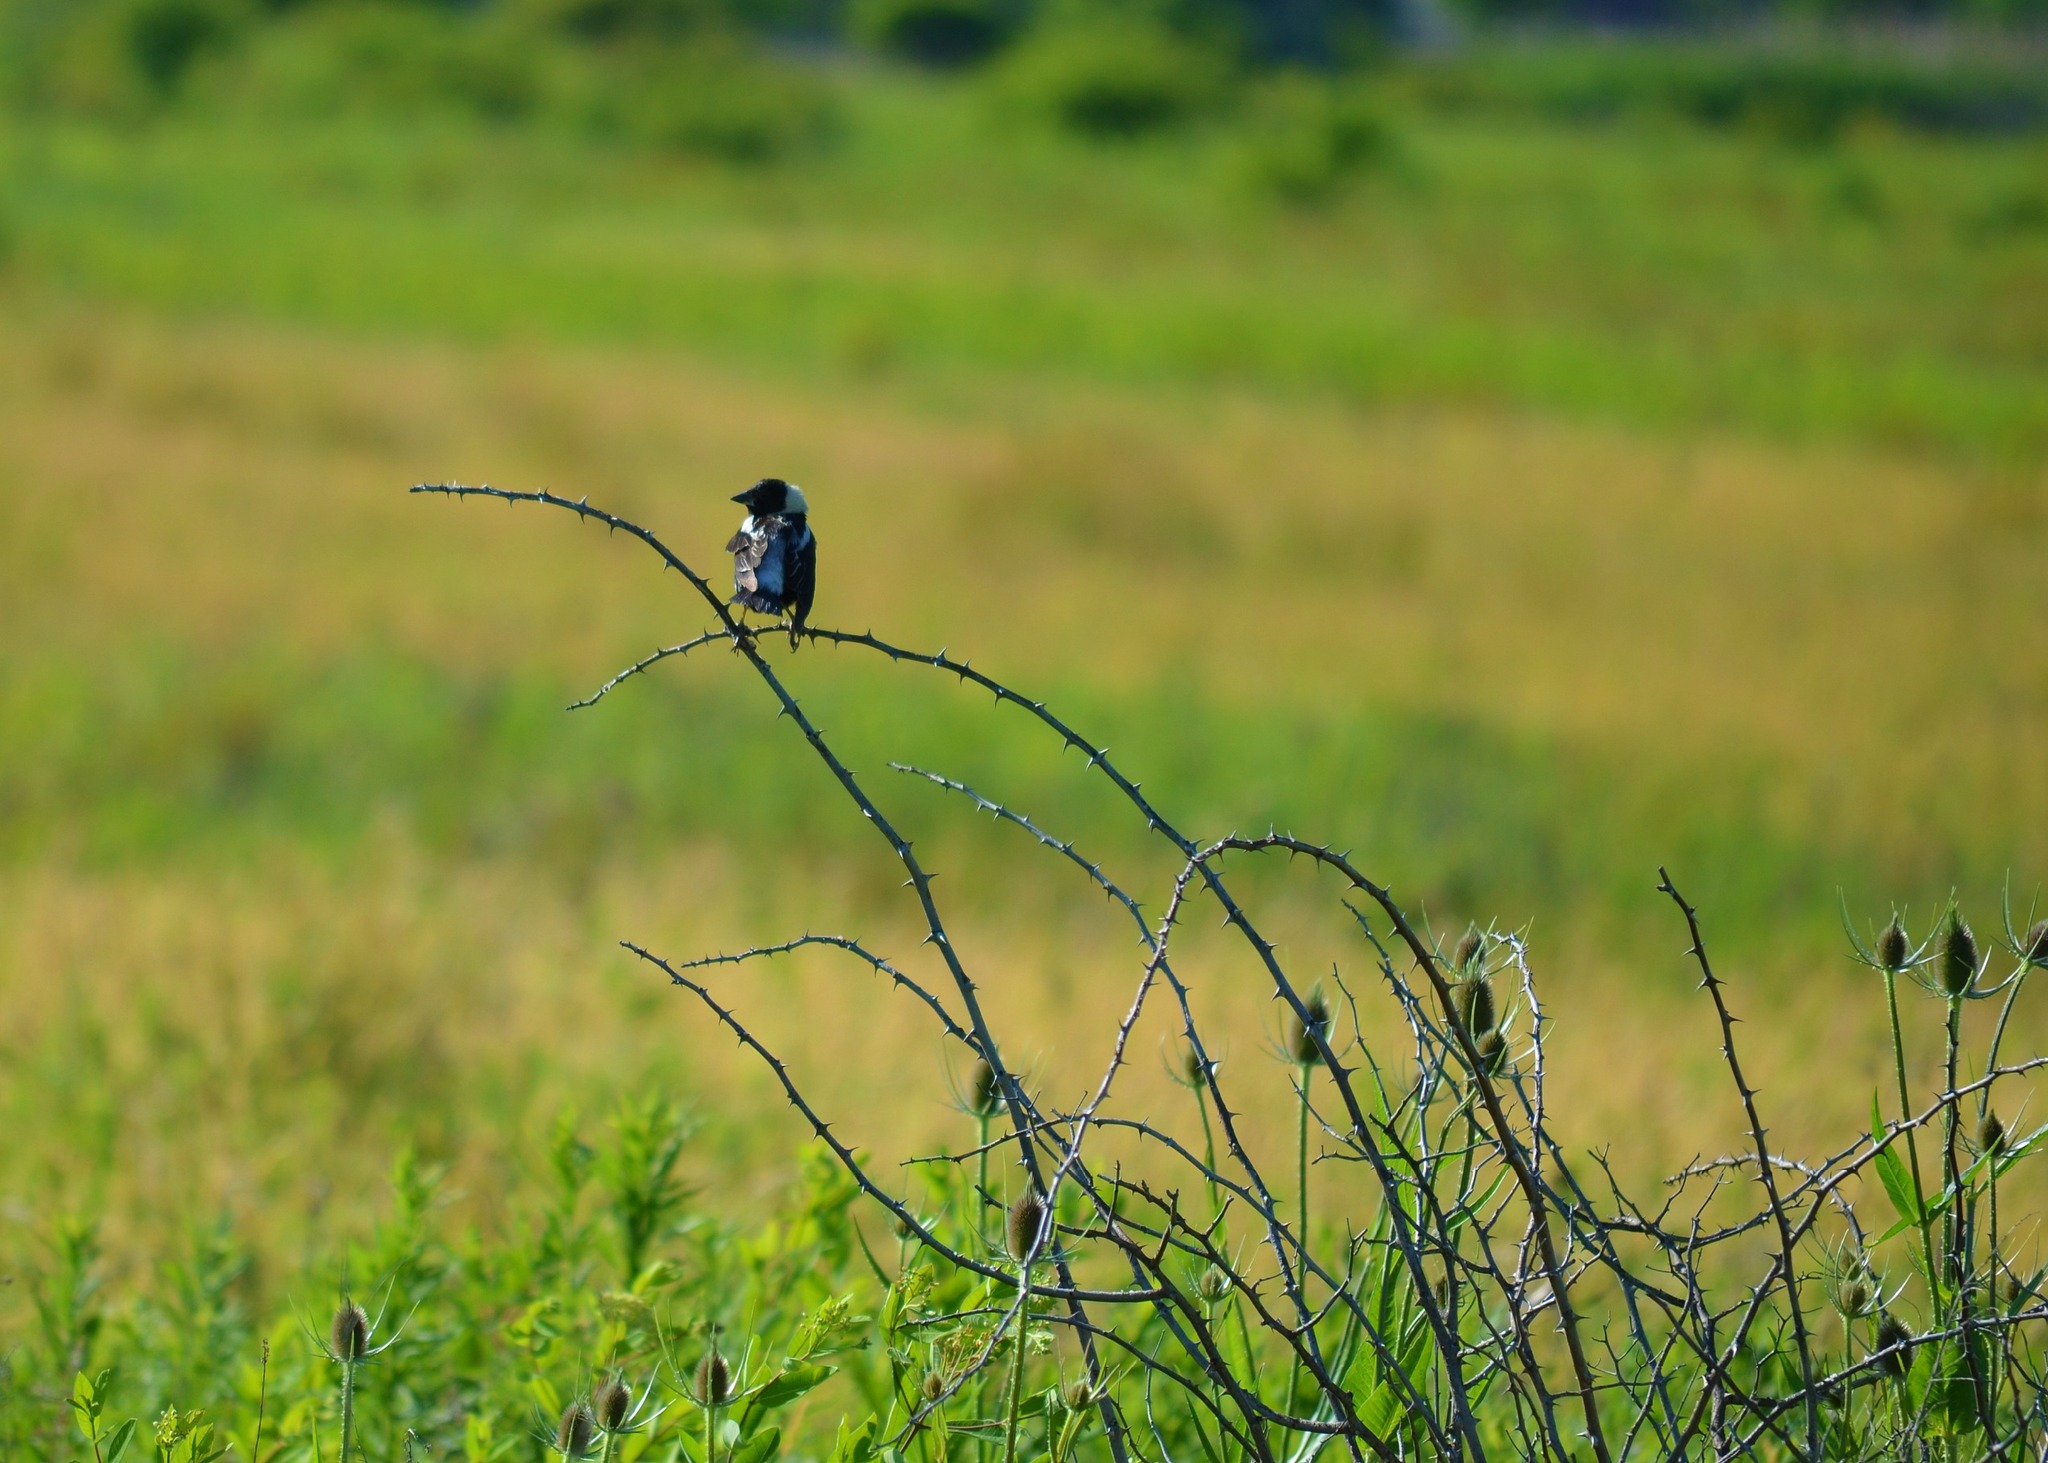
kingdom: Animalia
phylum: Chordata
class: Aves
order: Passeriformes
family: Icteridae
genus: Dolichonyx
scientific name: Dolichonyx oryzivorus
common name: Bobolink
